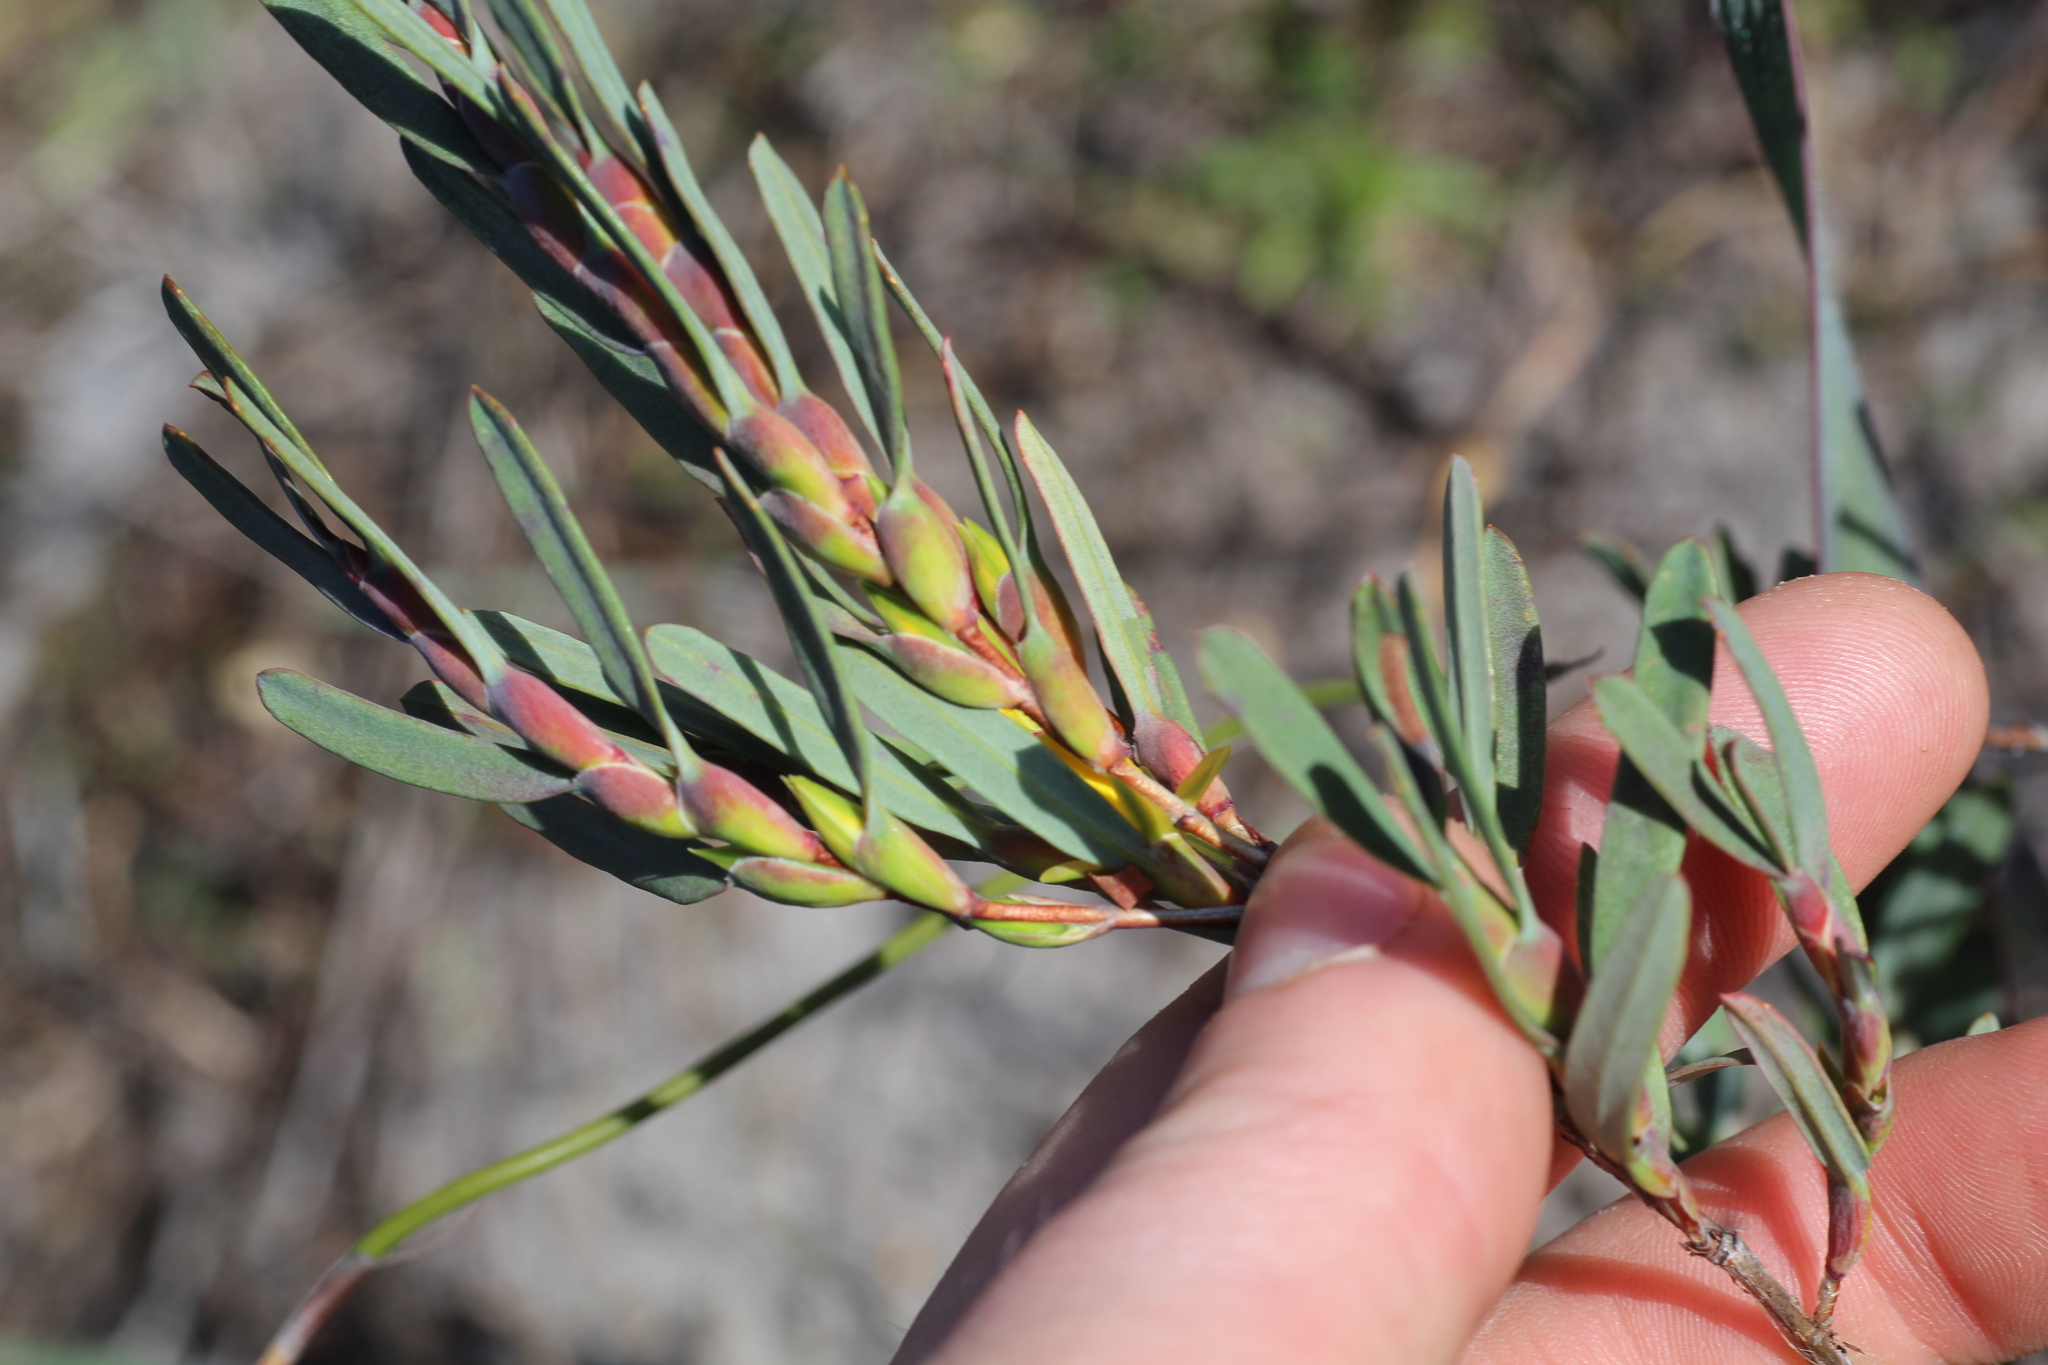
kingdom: Plantae
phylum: Tracheophyta
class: Magnoliopsida
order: Dilleniales
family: Dilleniaceae
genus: Hibbertia
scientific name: Hibbertia subvaginata
